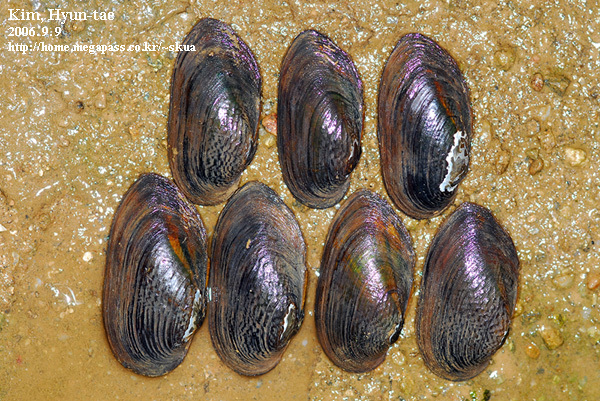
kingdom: Animalia
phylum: Mollusca
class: Bivalvia
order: Unionida
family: Unionidae
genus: Nodularia
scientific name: Nodularia douglasiae
